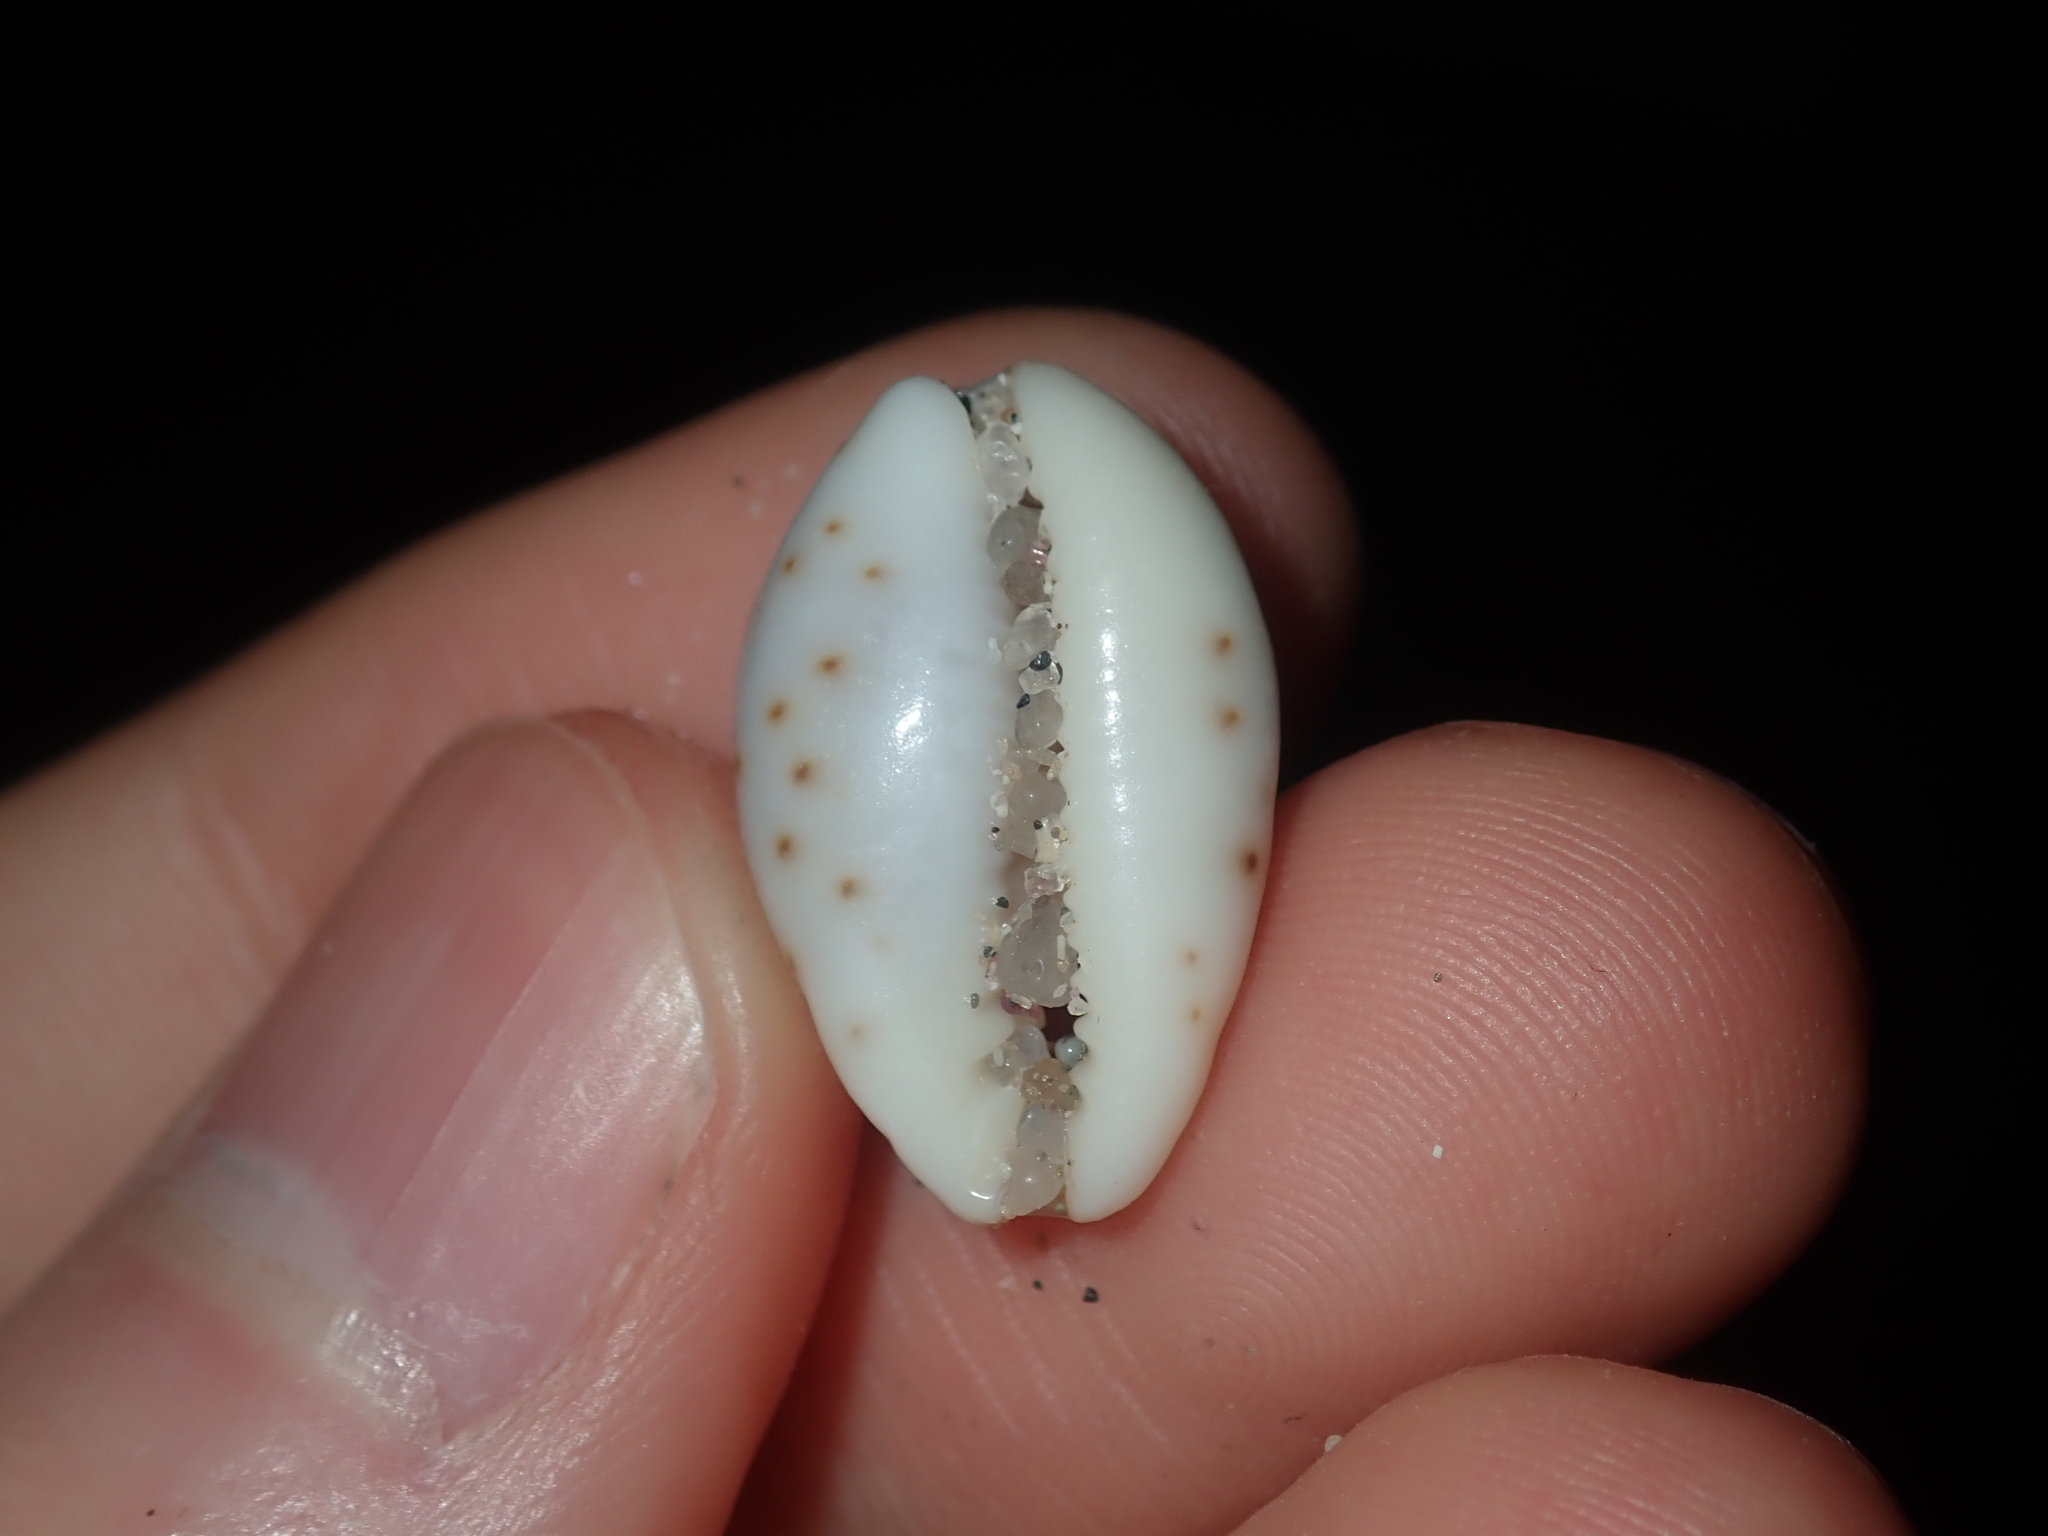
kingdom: Animalia
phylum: Mollusca
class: Gastropoda
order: Littorinimorpha
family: Cypraeidae
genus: Purpuradusta
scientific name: Purpuradusta gracilis
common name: Graceful cowrie
